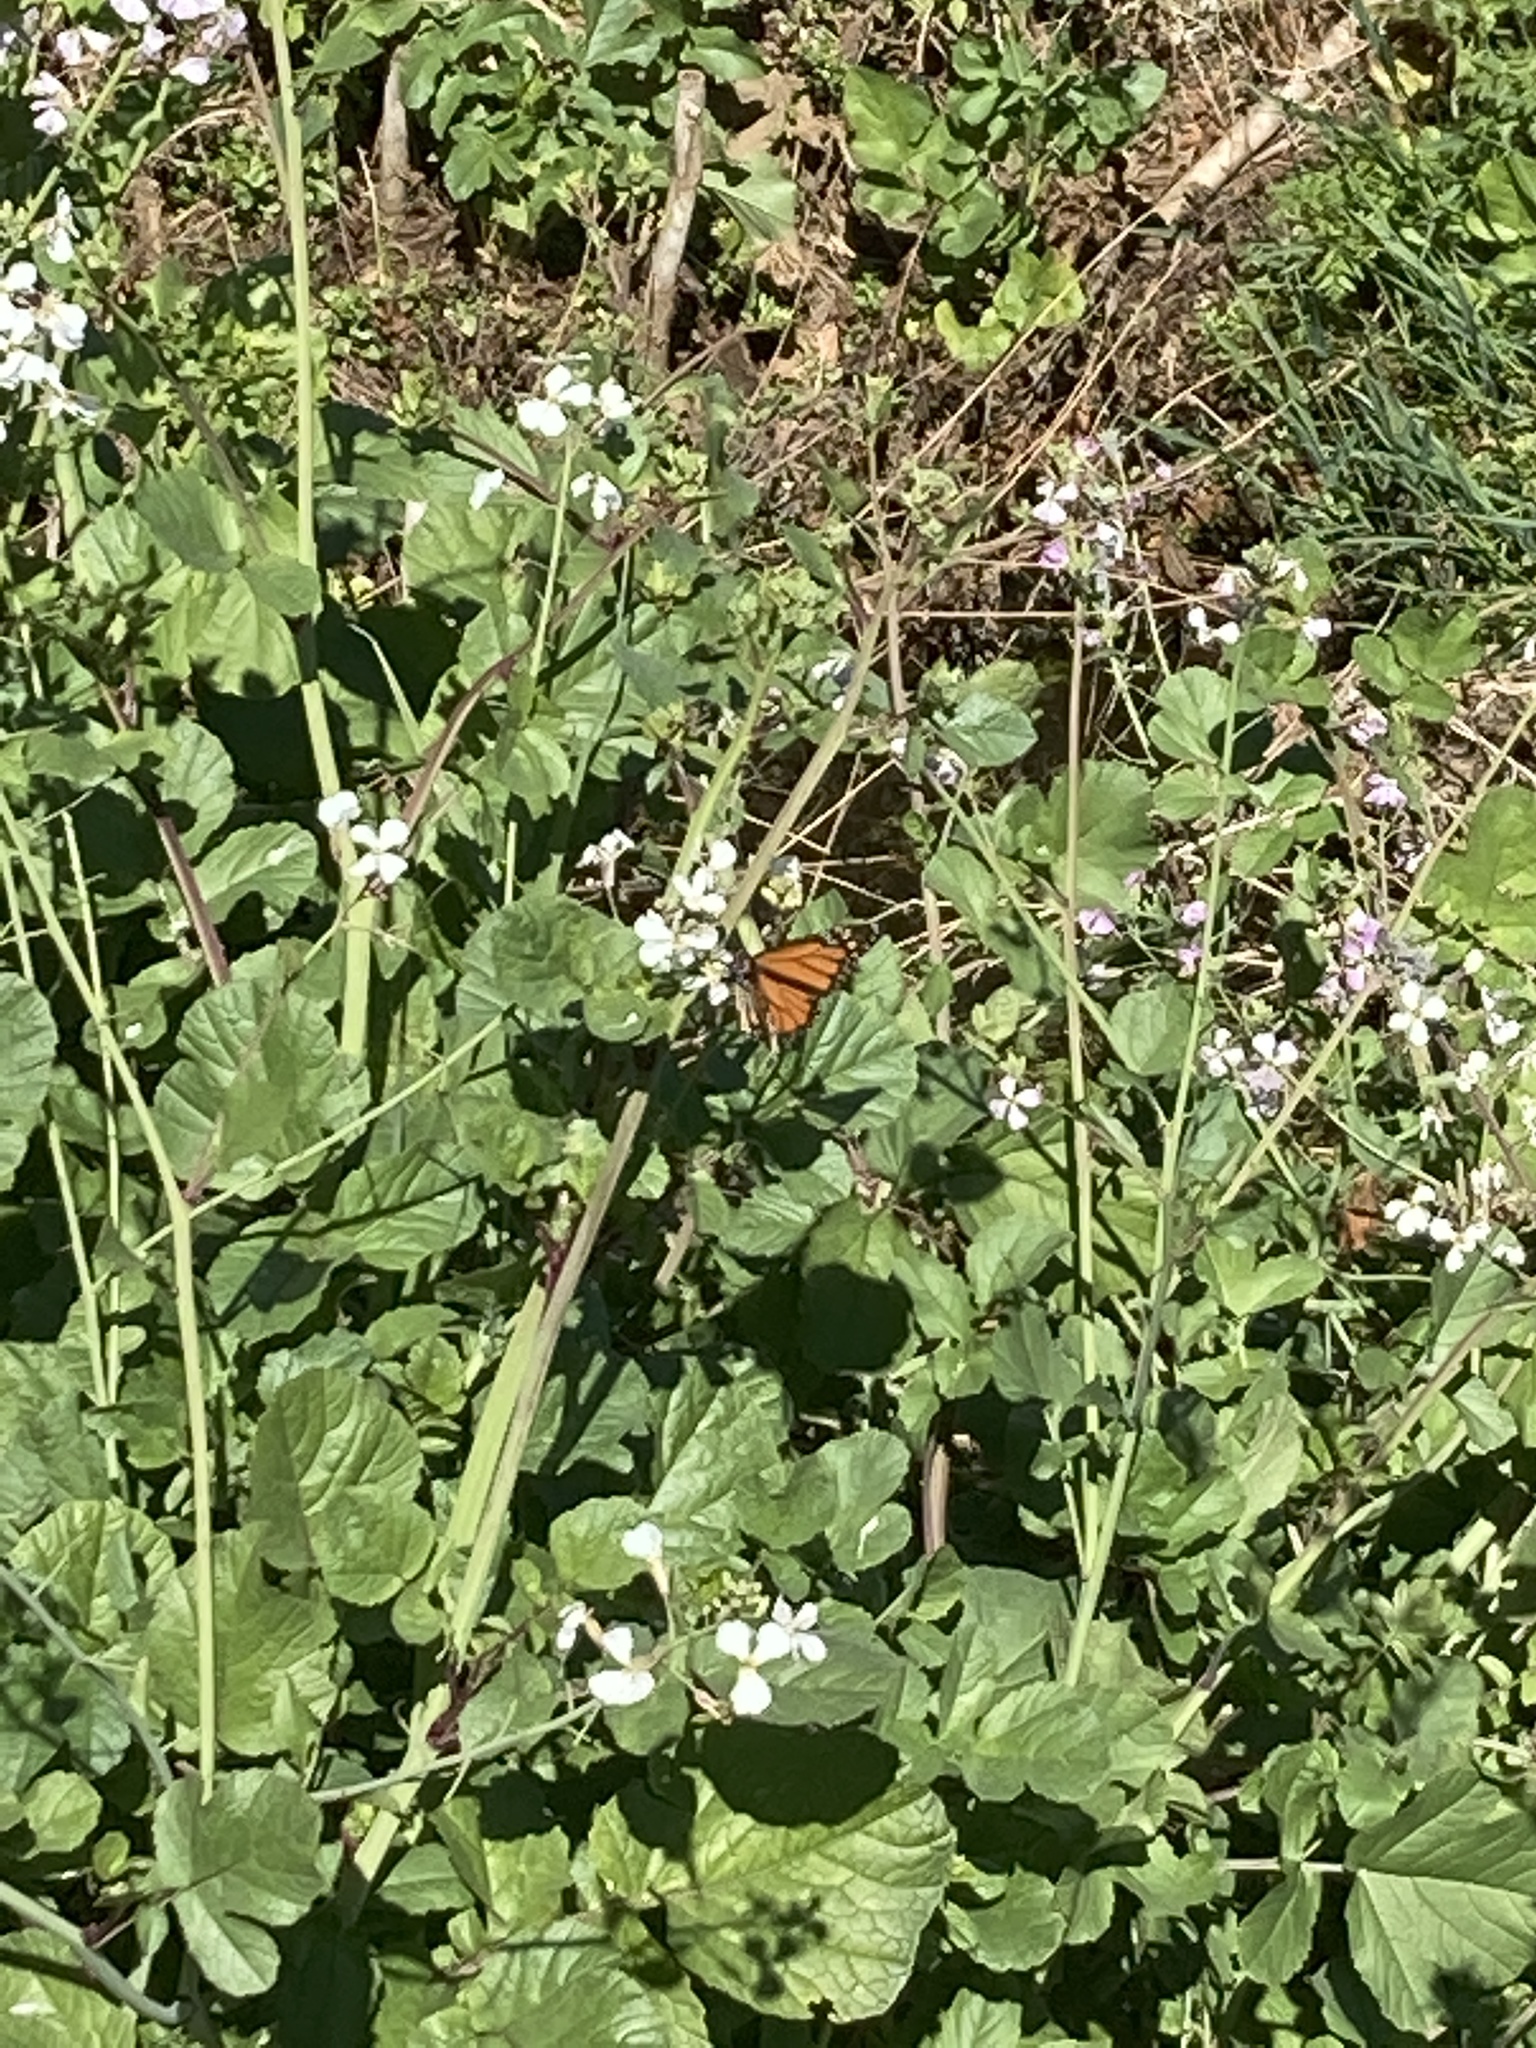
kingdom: Animalia
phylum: Arthropoda
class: Insecta
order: Lepidoptera
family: Nymphalidae
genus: Danaus
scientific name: Danaus plexippus
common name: Monarch
